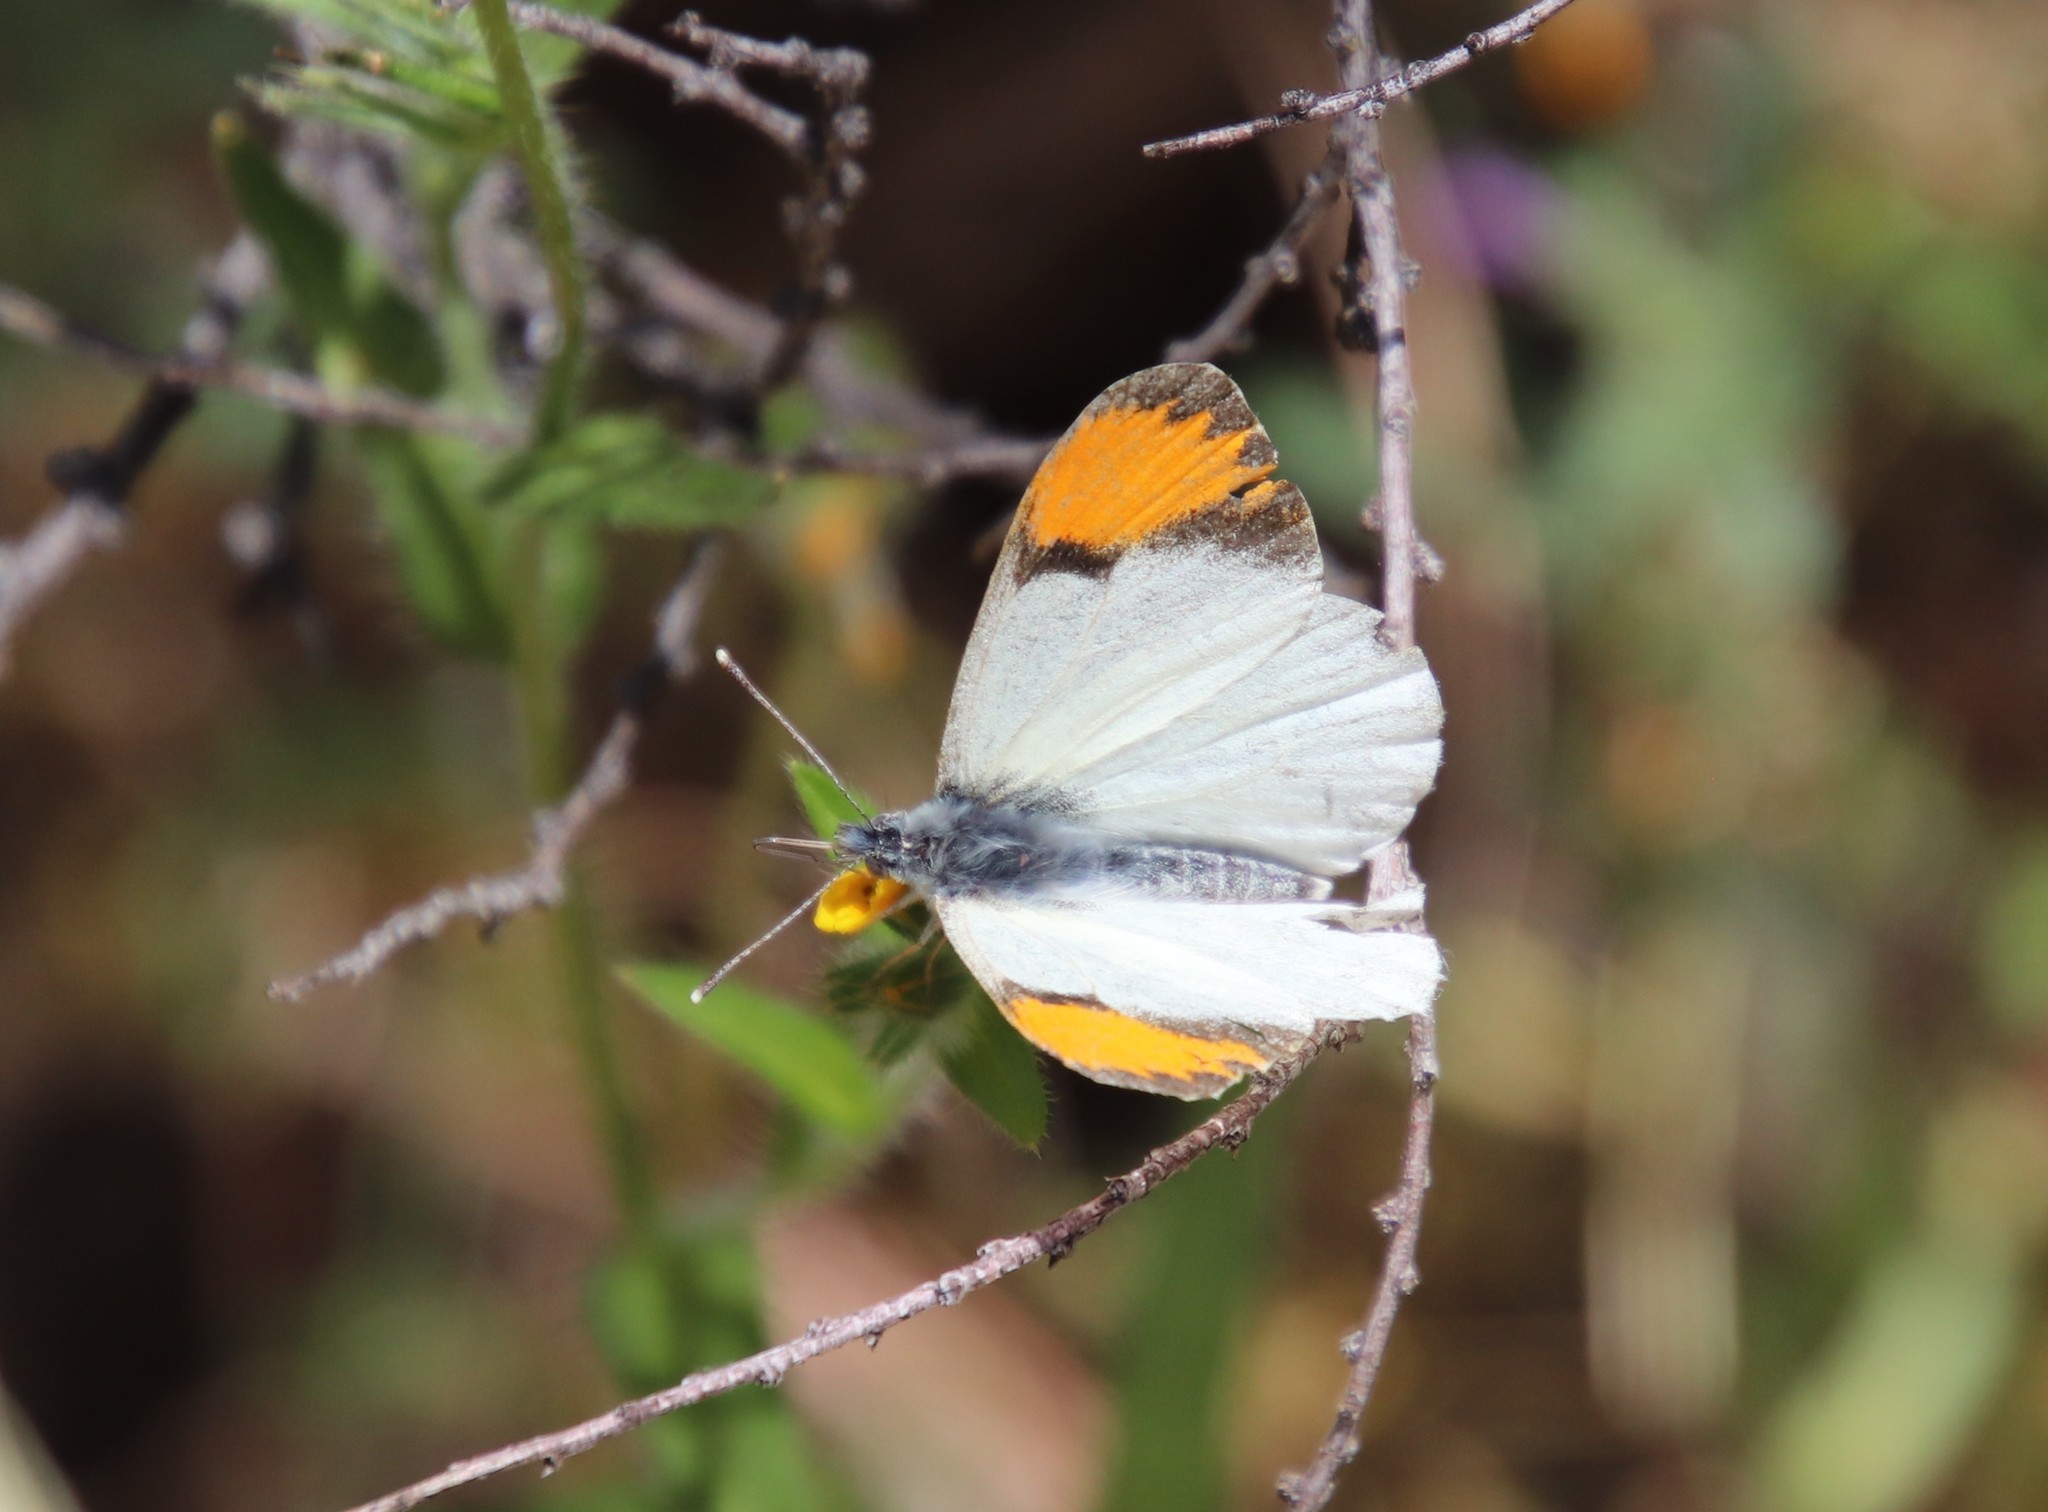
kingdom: Animalia
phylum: Arthropoda
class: Insecta
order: Lepidoptera
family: Pieridae
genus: Anthocharis
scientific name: Anthocharis sara
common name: Sara's orangetip
